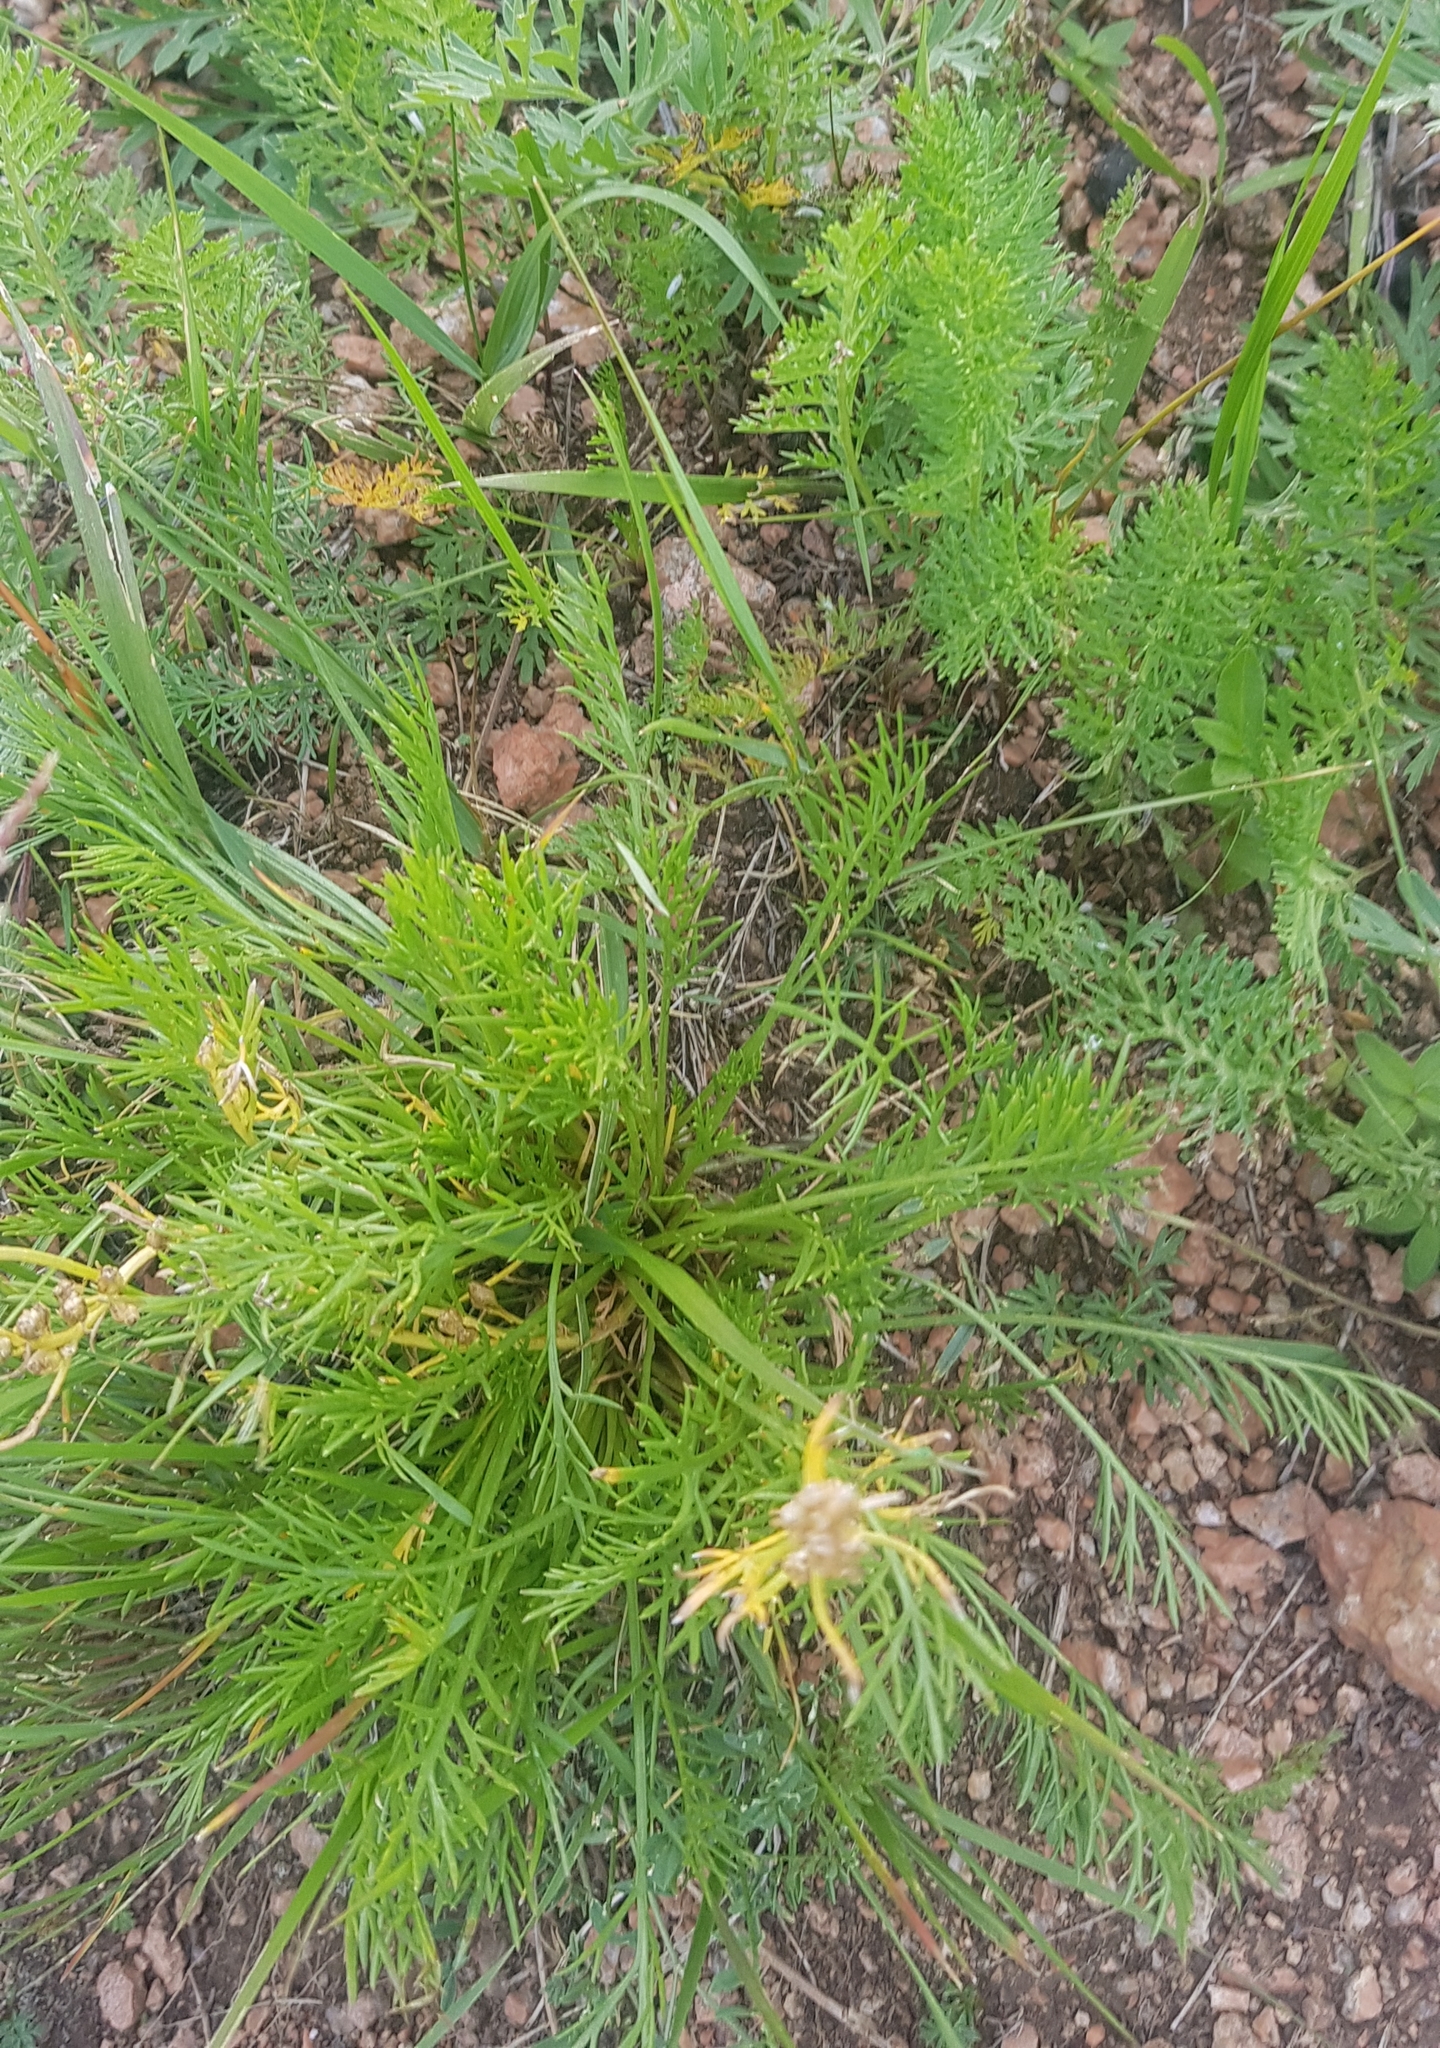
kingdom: Plantae
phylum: Tracheophyta
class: Magnoliopsida
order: Asterales
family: Asteraceae
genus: Artemisia
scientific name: Artemisia pubescens
